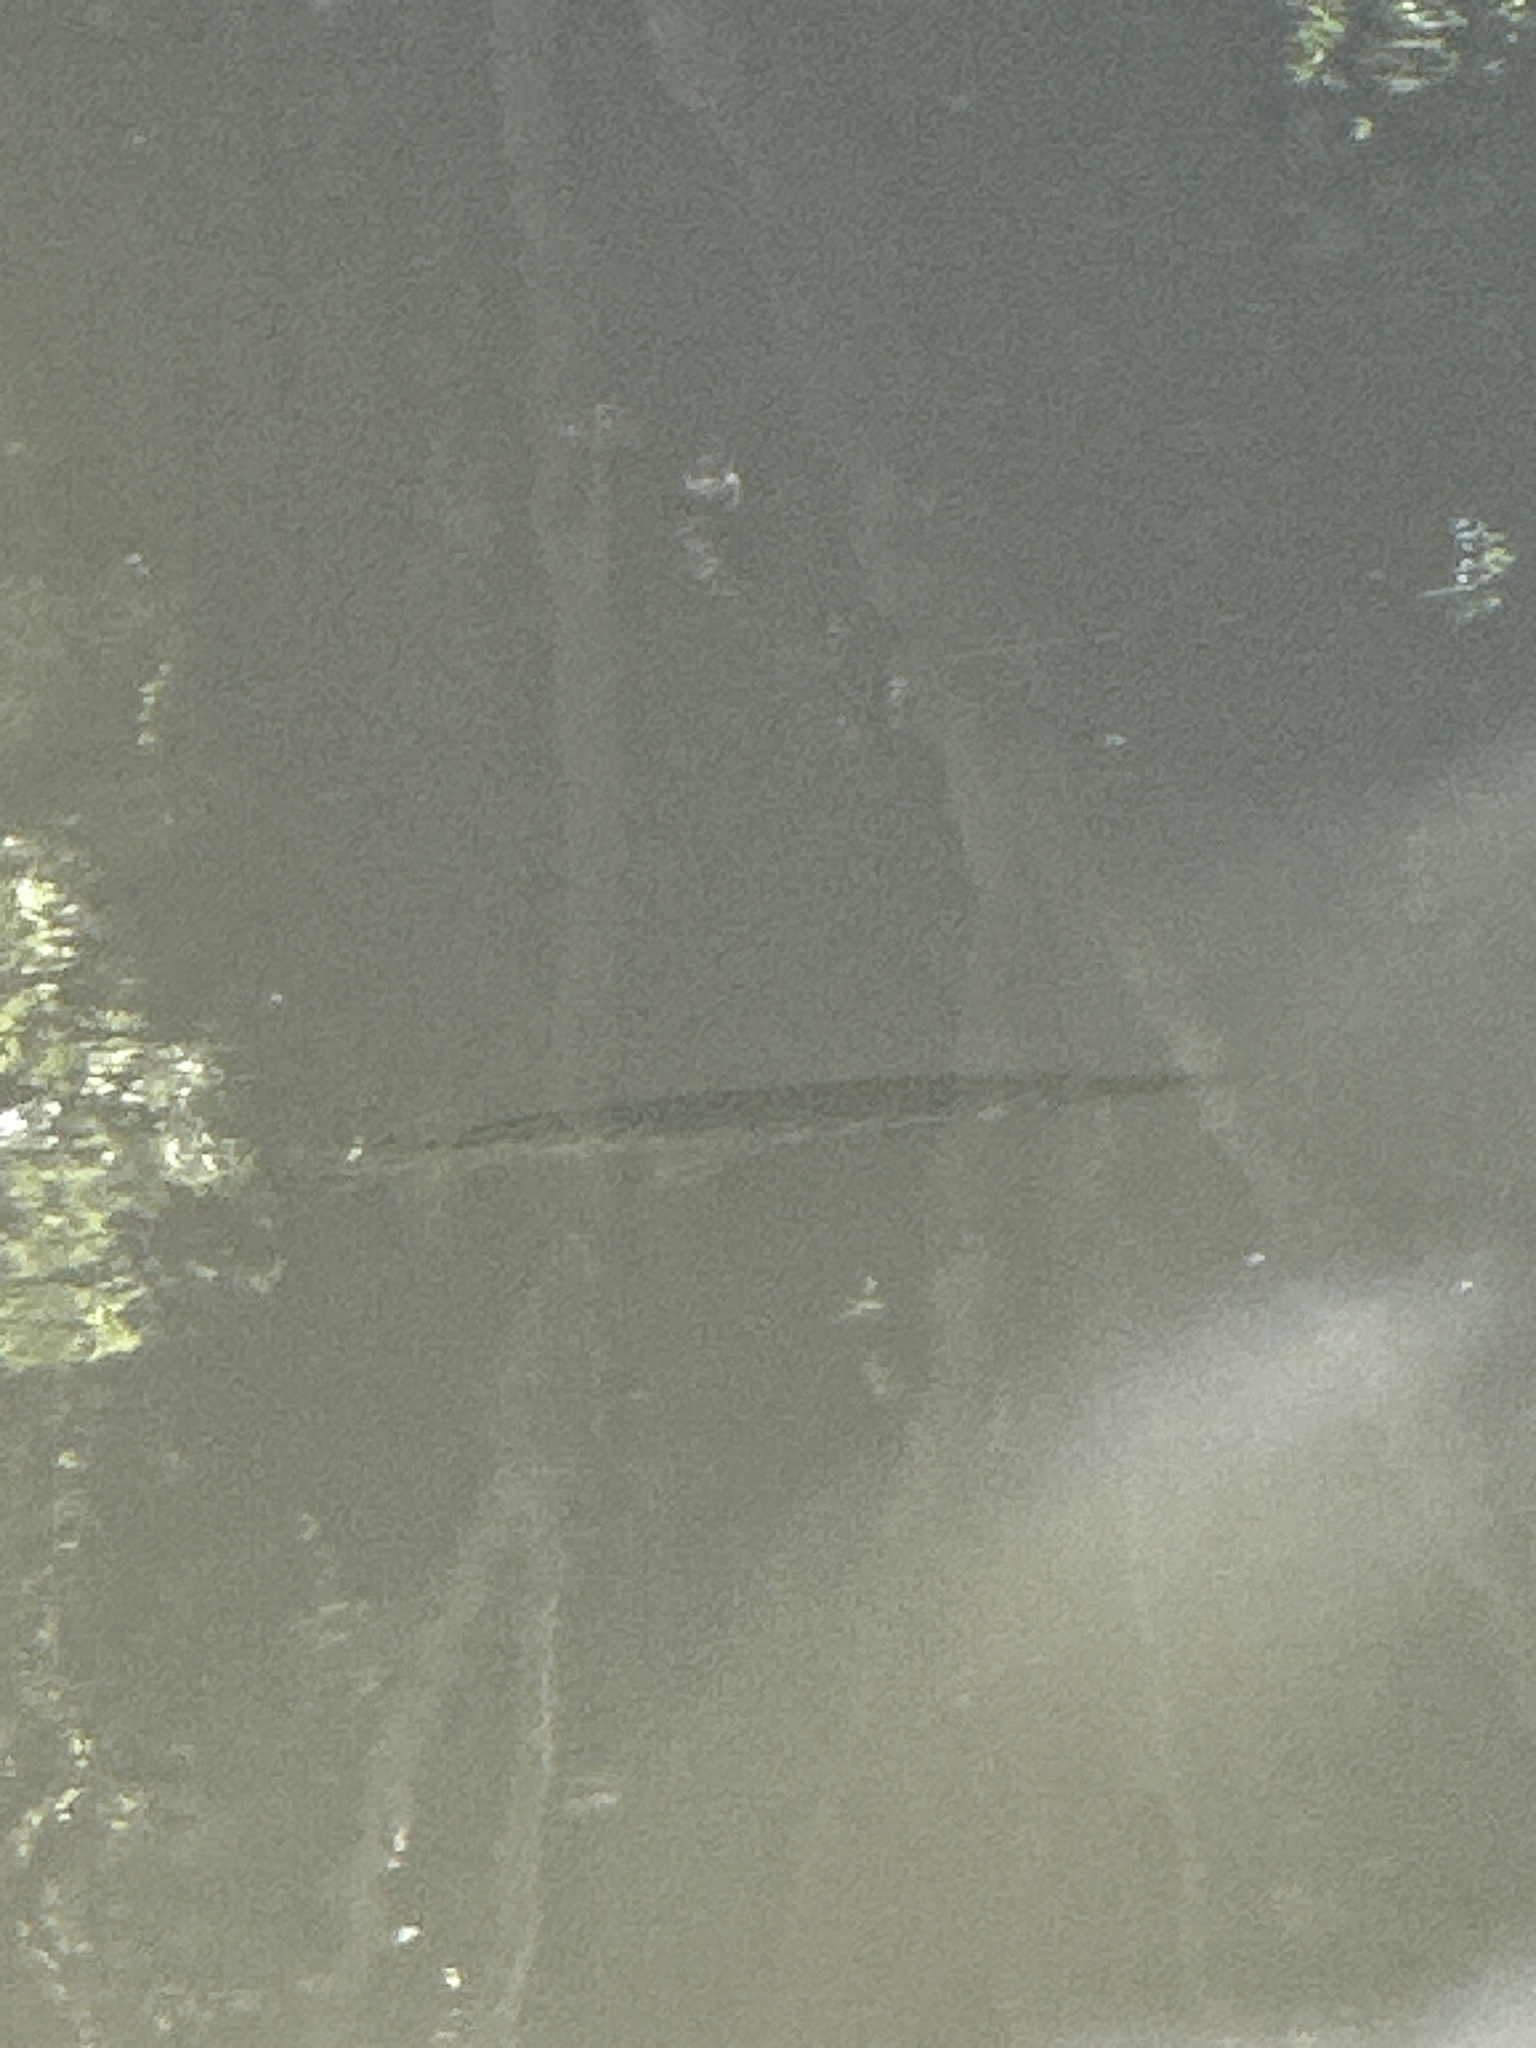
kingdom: Animalia
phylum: Chordata
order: Lepisosteiformes
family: Lepisosteidae
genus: Lepisosteus
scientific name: Lepisosteus oculatus
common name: Spotted gar
